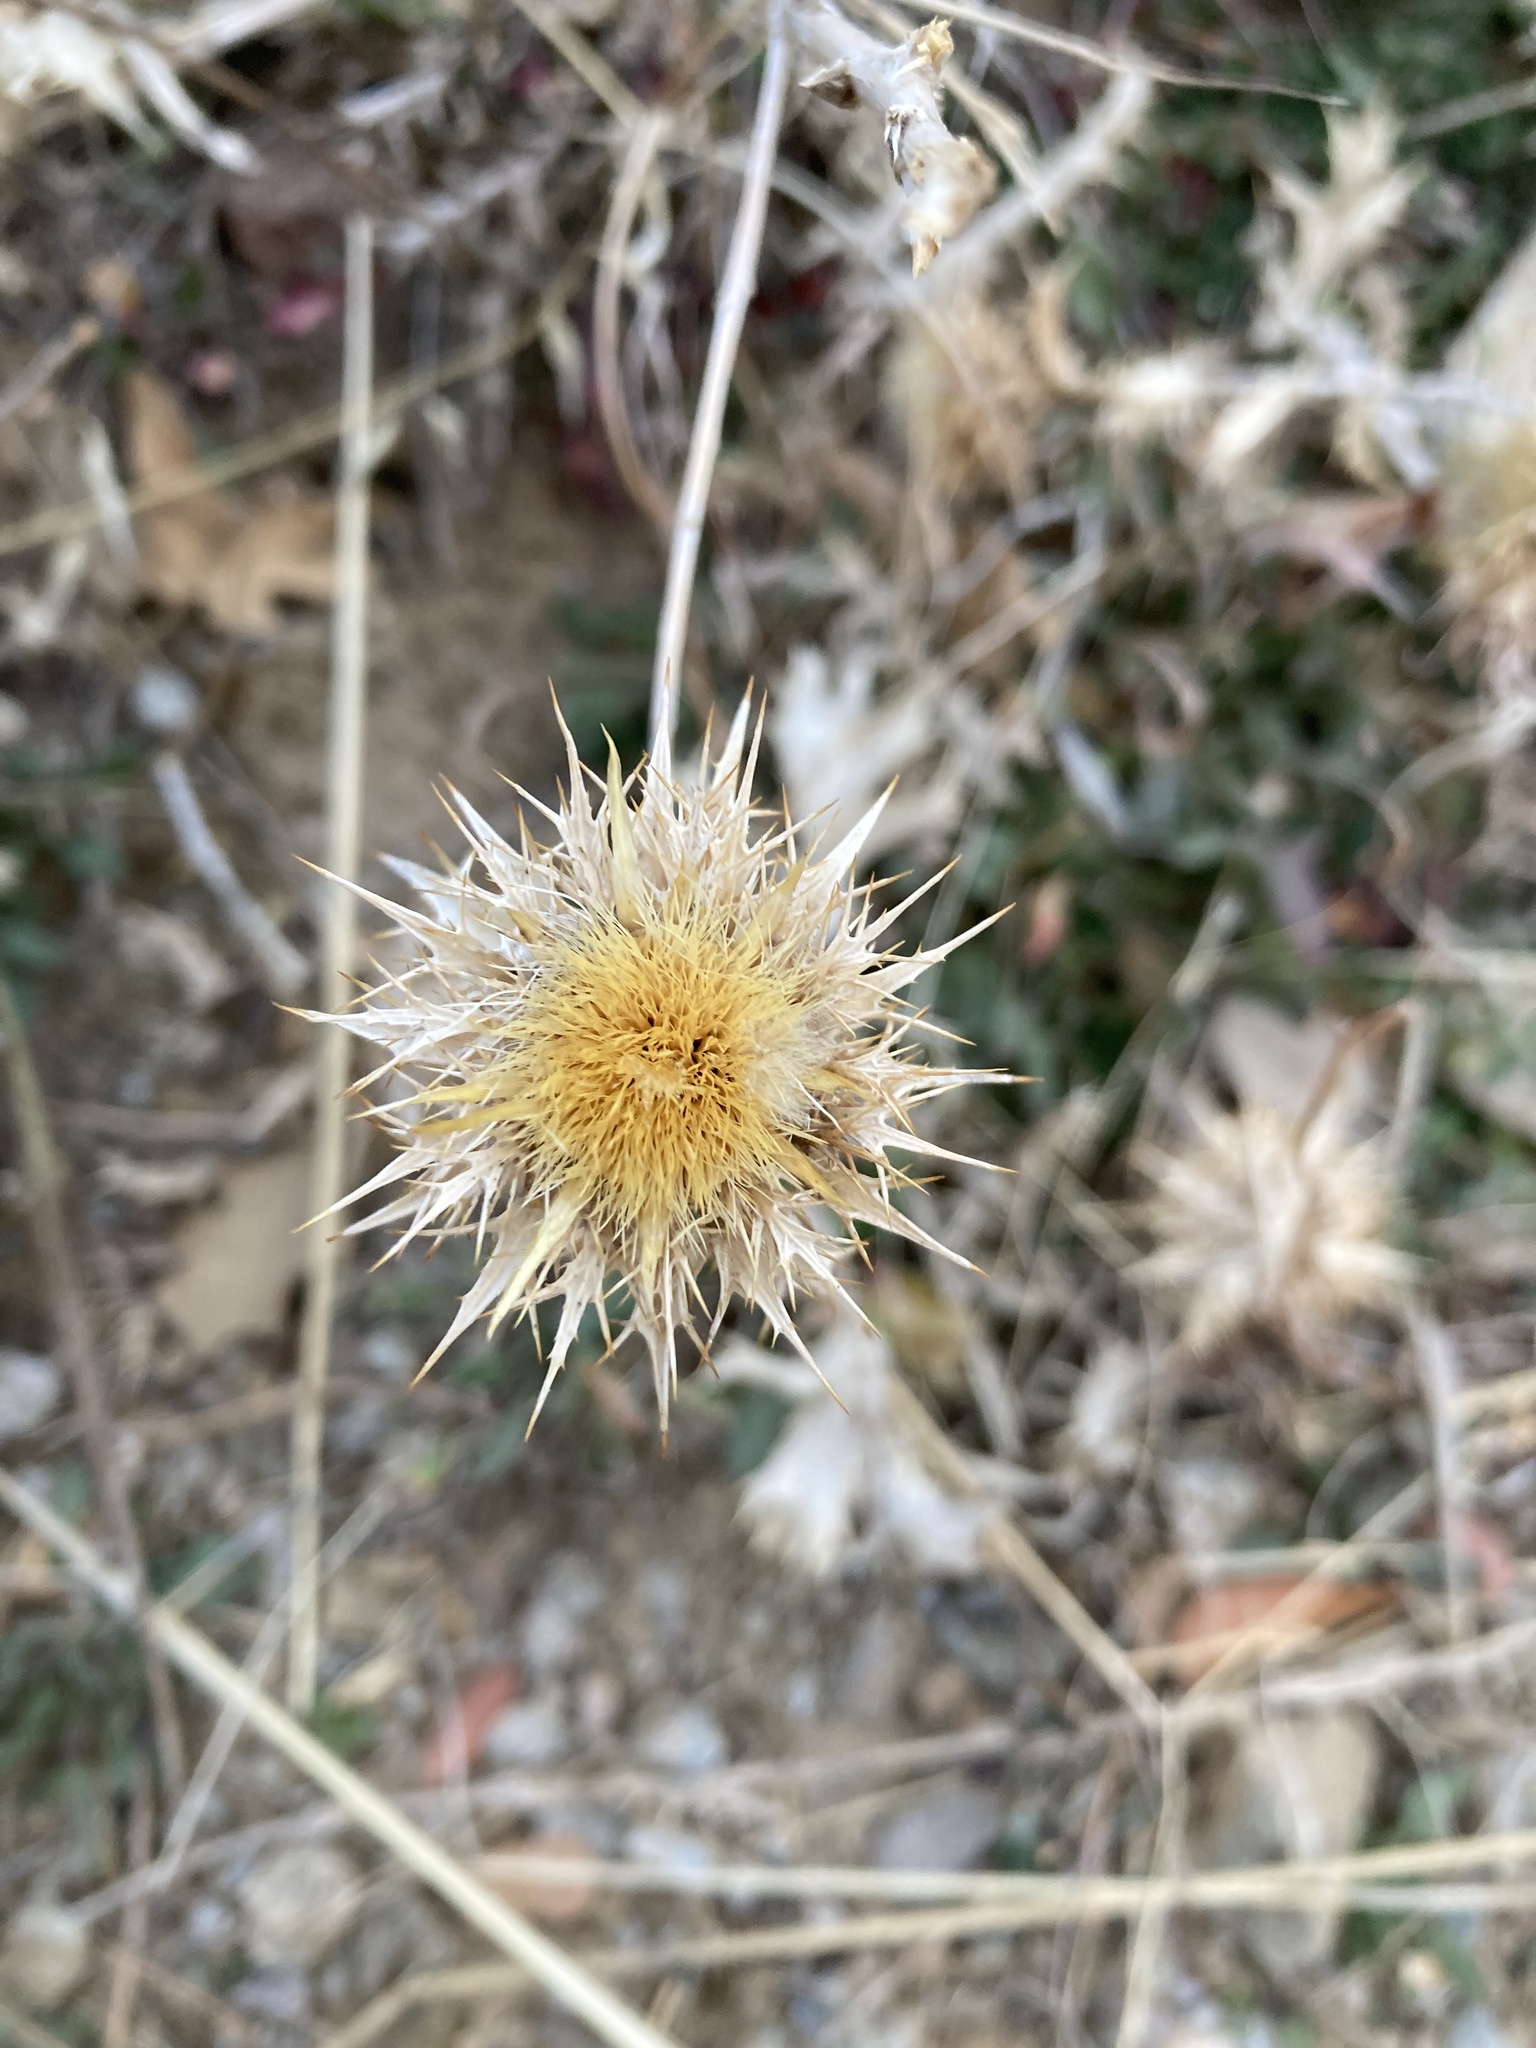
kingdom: Plantae
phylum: Tracheophyta
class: Magnoliopsida
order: Asterales
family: Asteraceae
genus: Carlina
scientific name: Carlina hispanica
